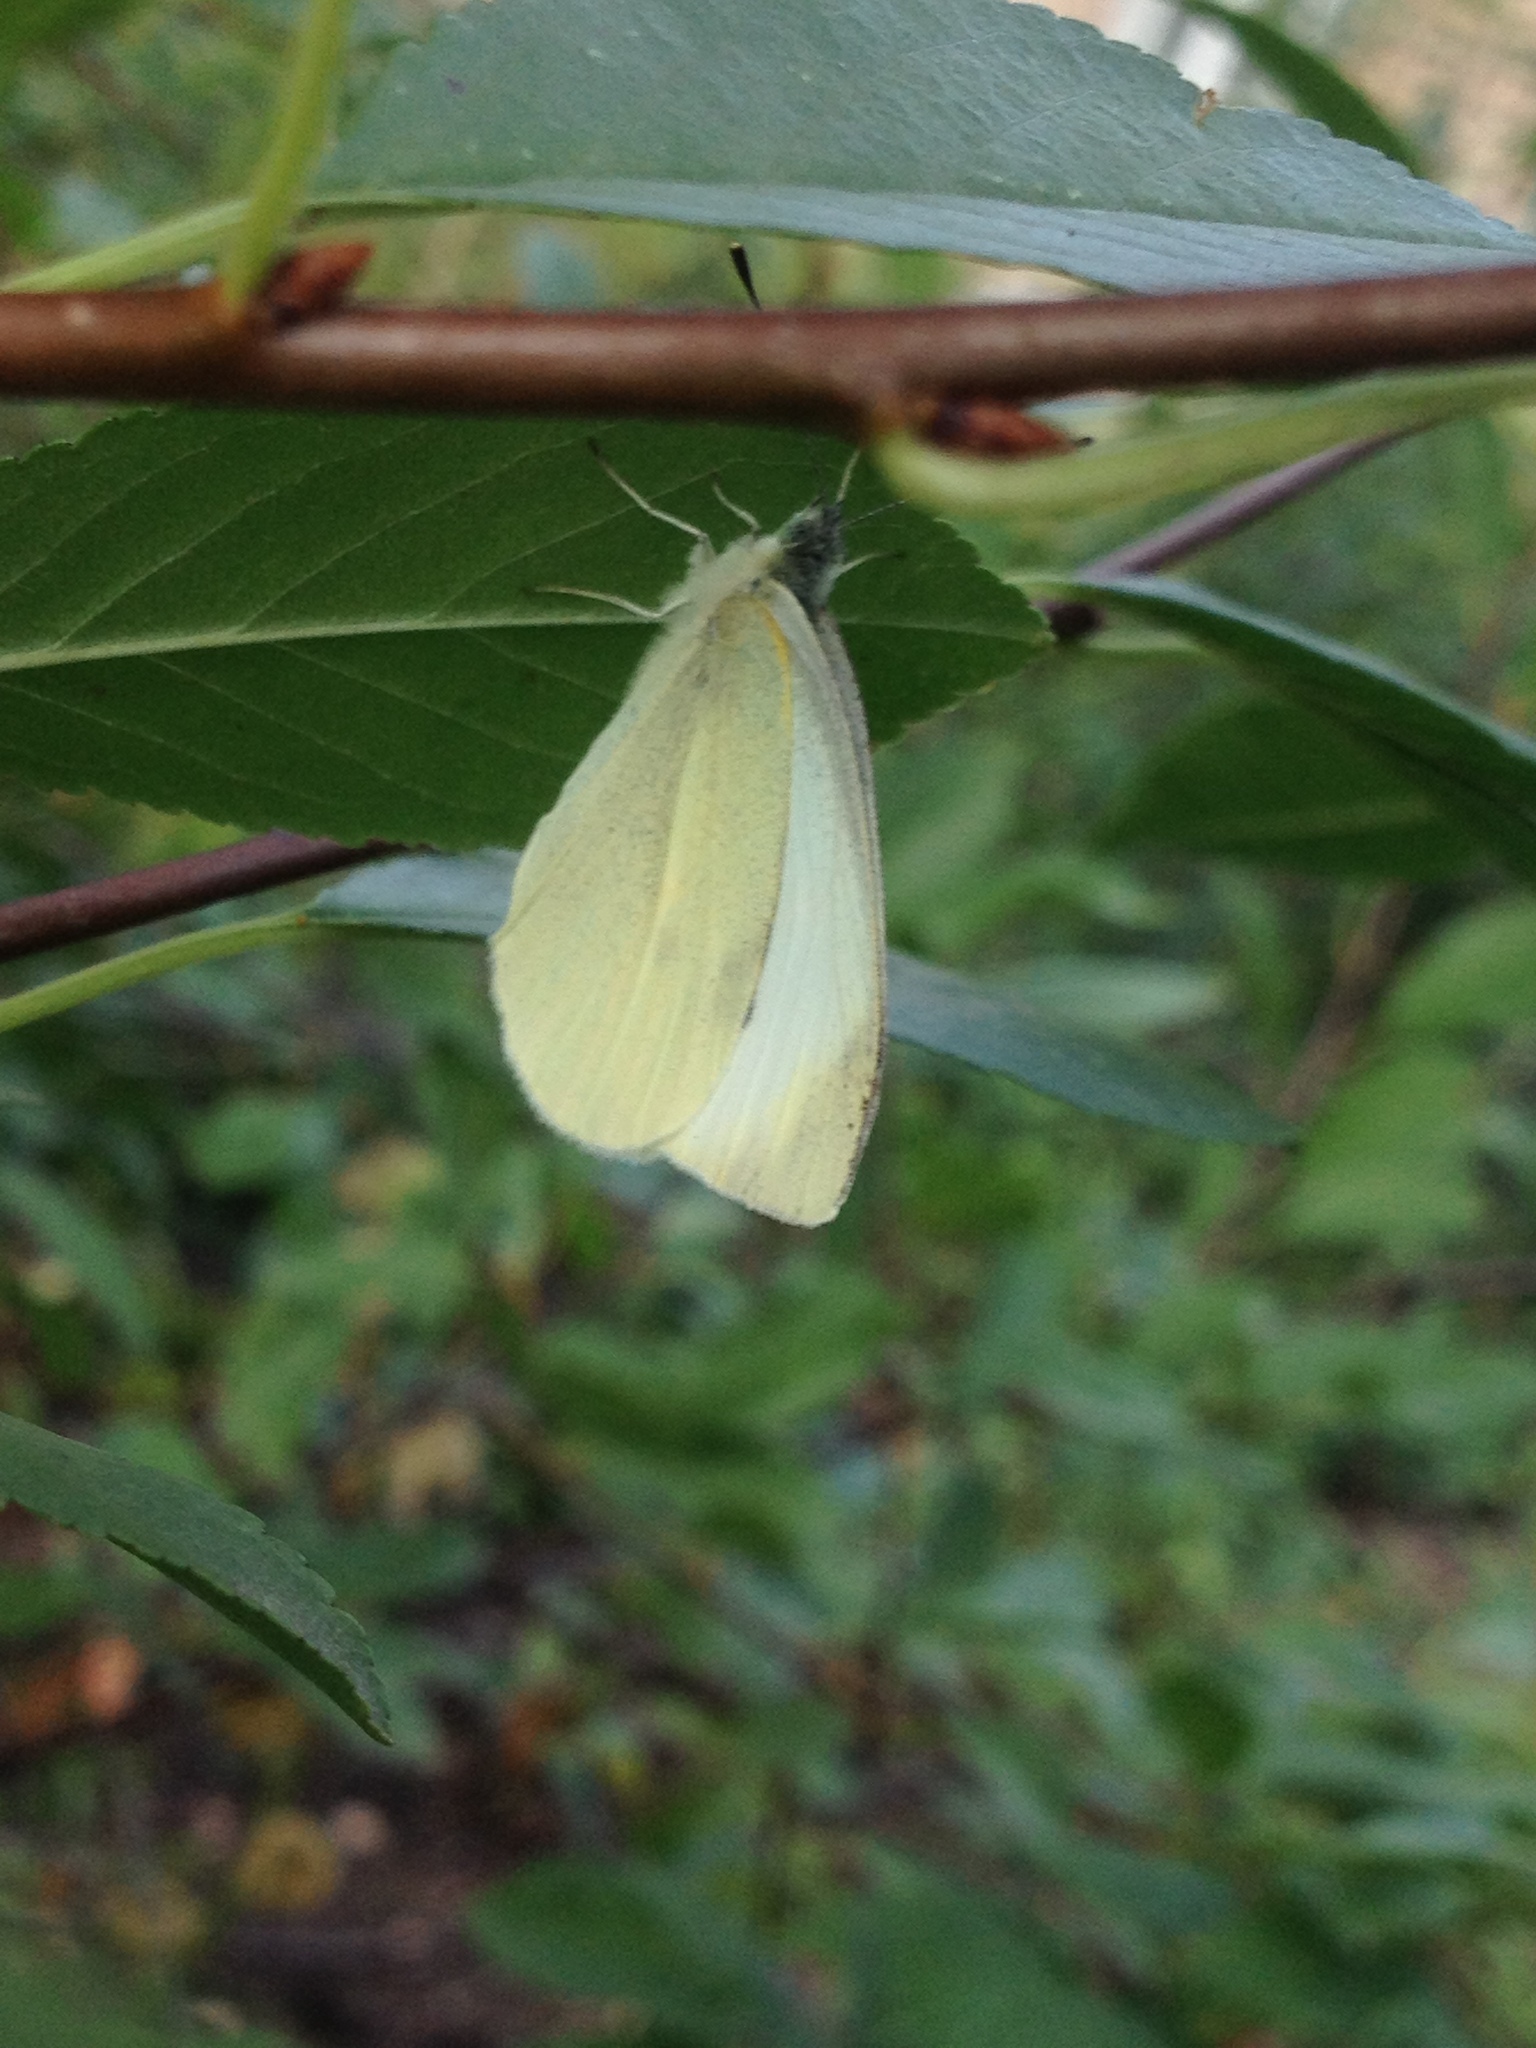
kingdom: Animalia
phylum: Arthropoda
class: Insecta
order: Lepidoptera
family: Pieridae
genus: Pieris
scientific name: Pieris rapae
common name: Small white
